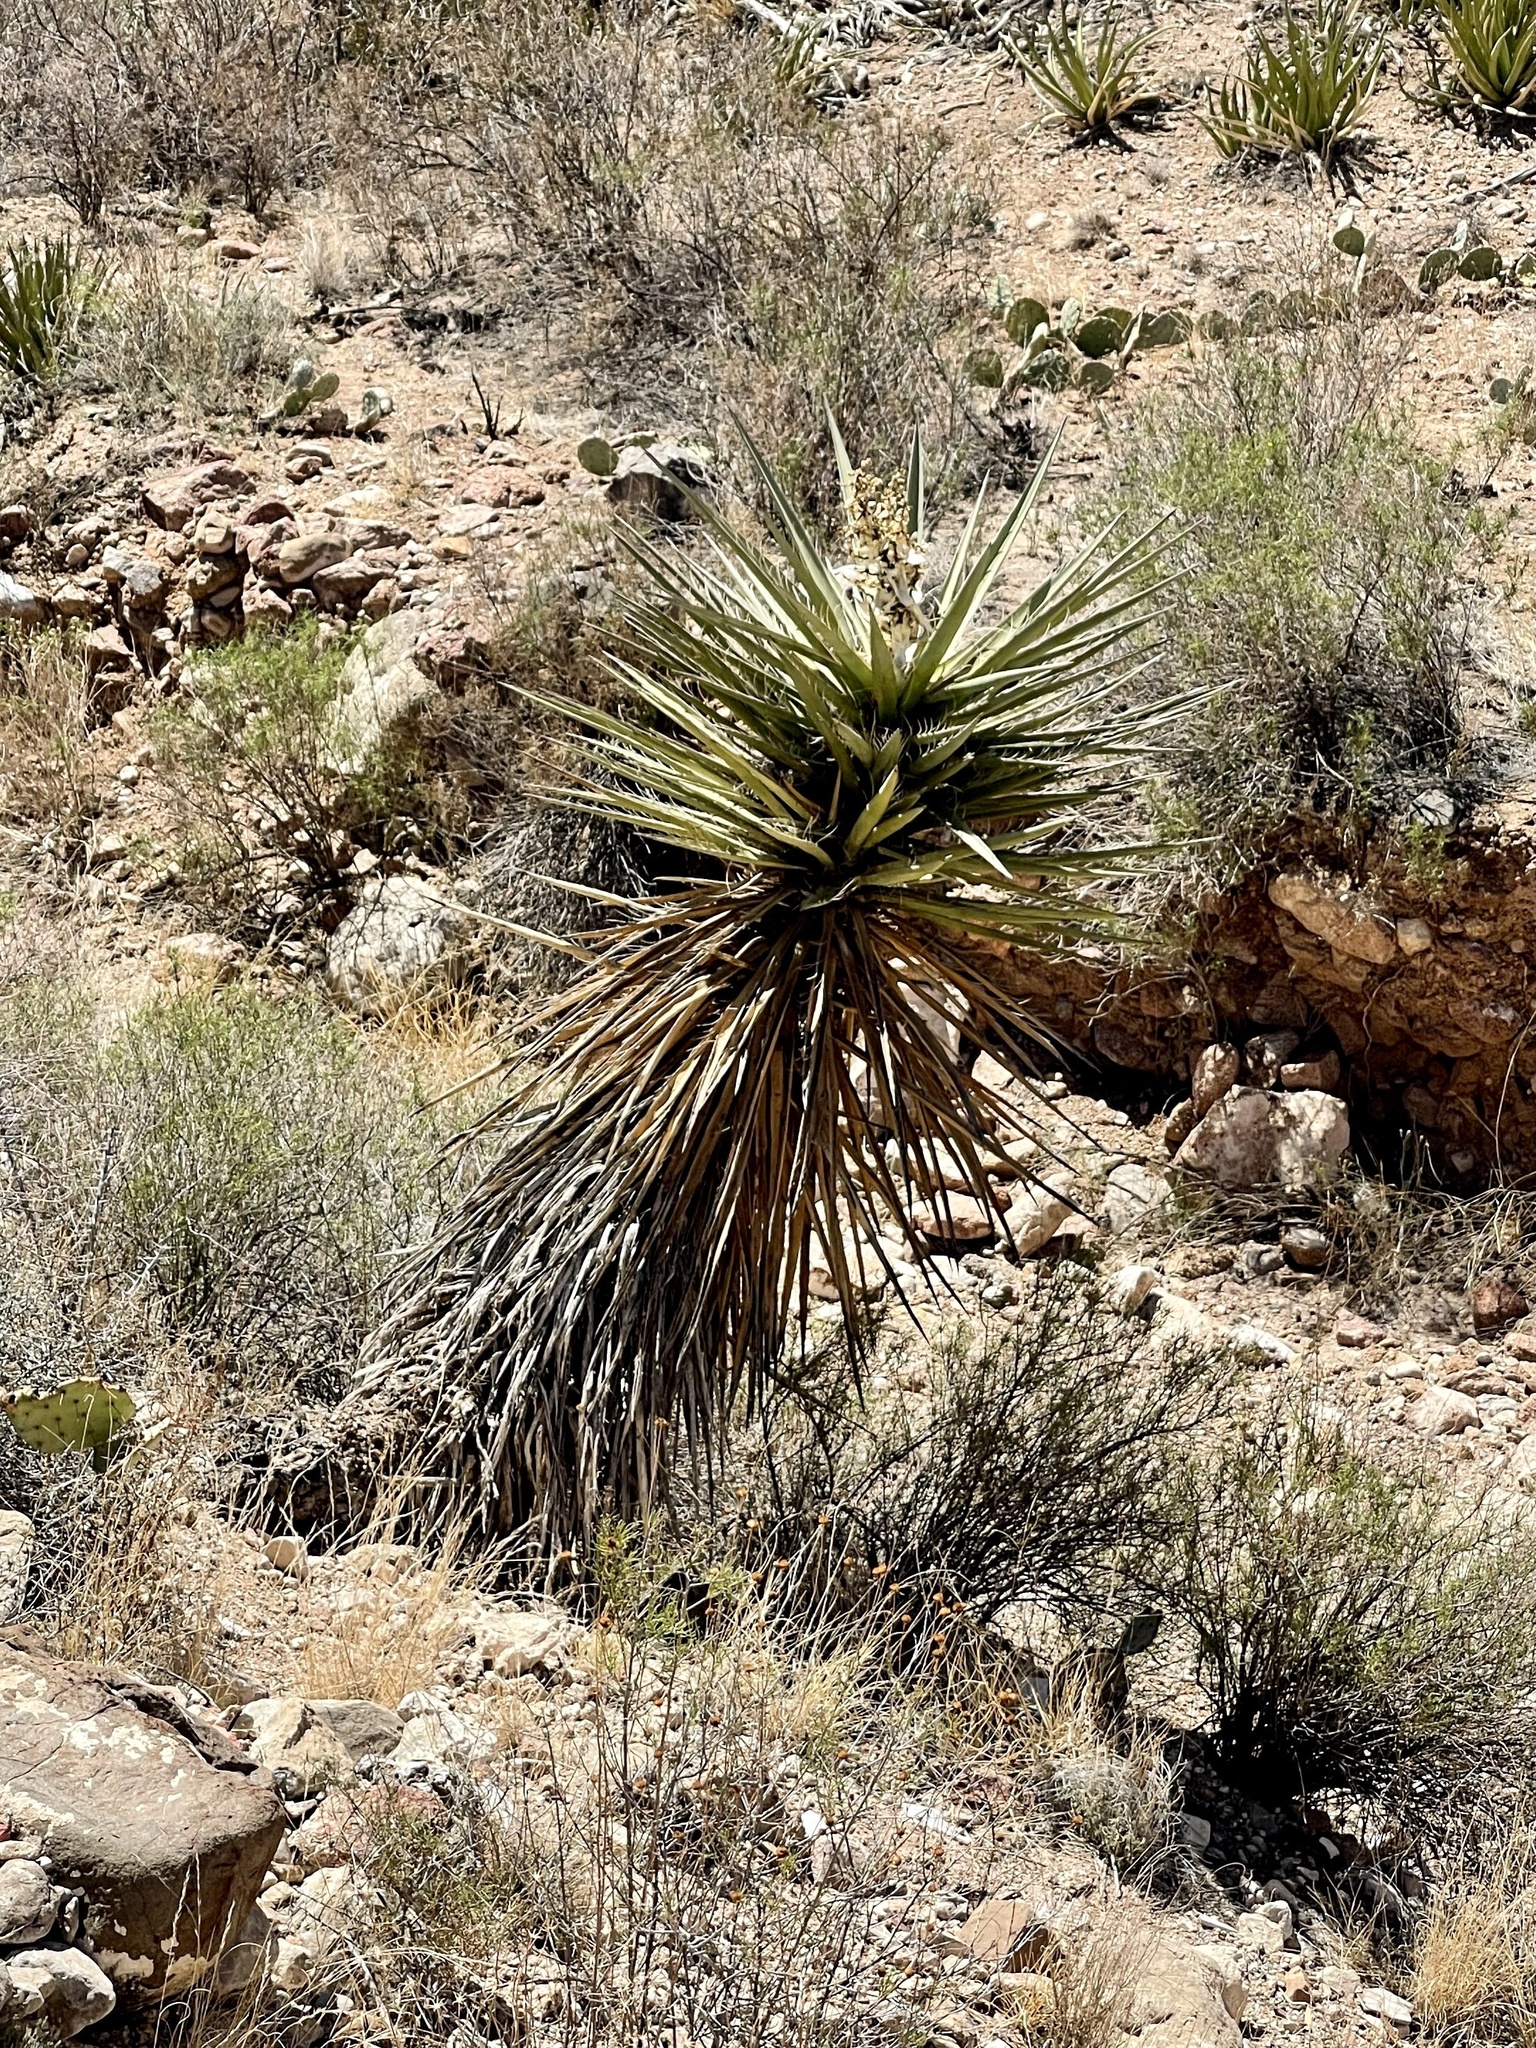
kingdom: Plantae
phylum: Tracheophyta
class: Liliopsida
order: Asparagales
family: Asparagaceae
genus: Yucca
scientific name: Yucca treculiana
